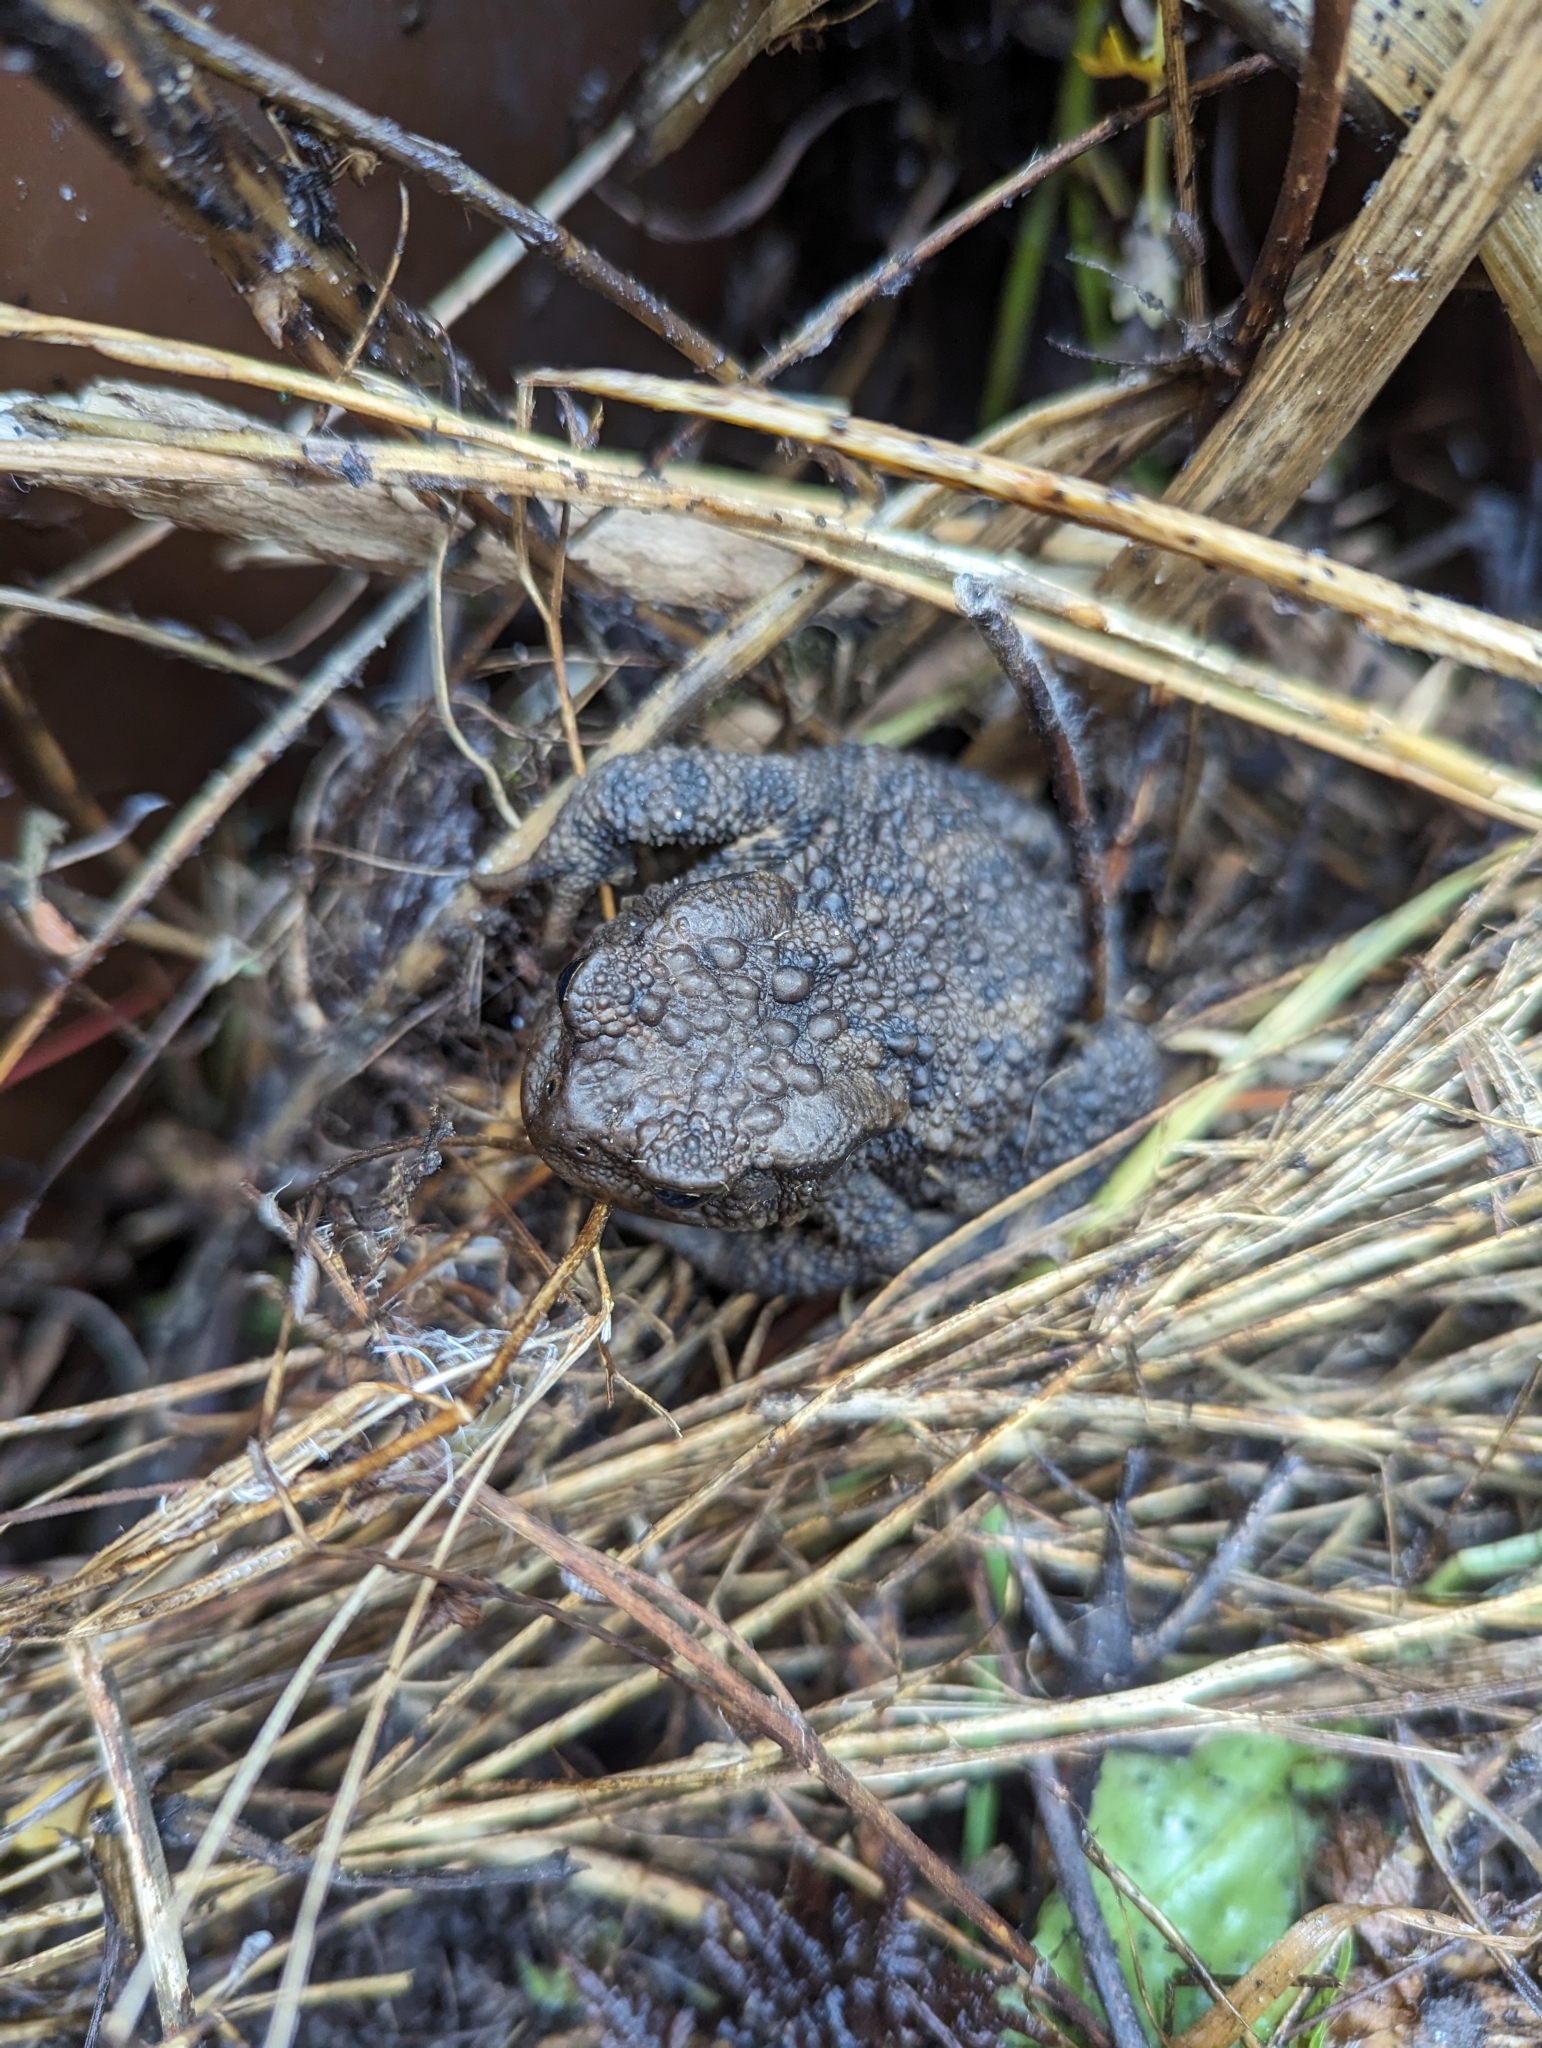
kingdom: Animalia
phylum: Chordata
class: Amphibia
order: Anura
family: Bufonidae
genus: Bufo
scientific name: Bufo bufo
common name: Common toad
